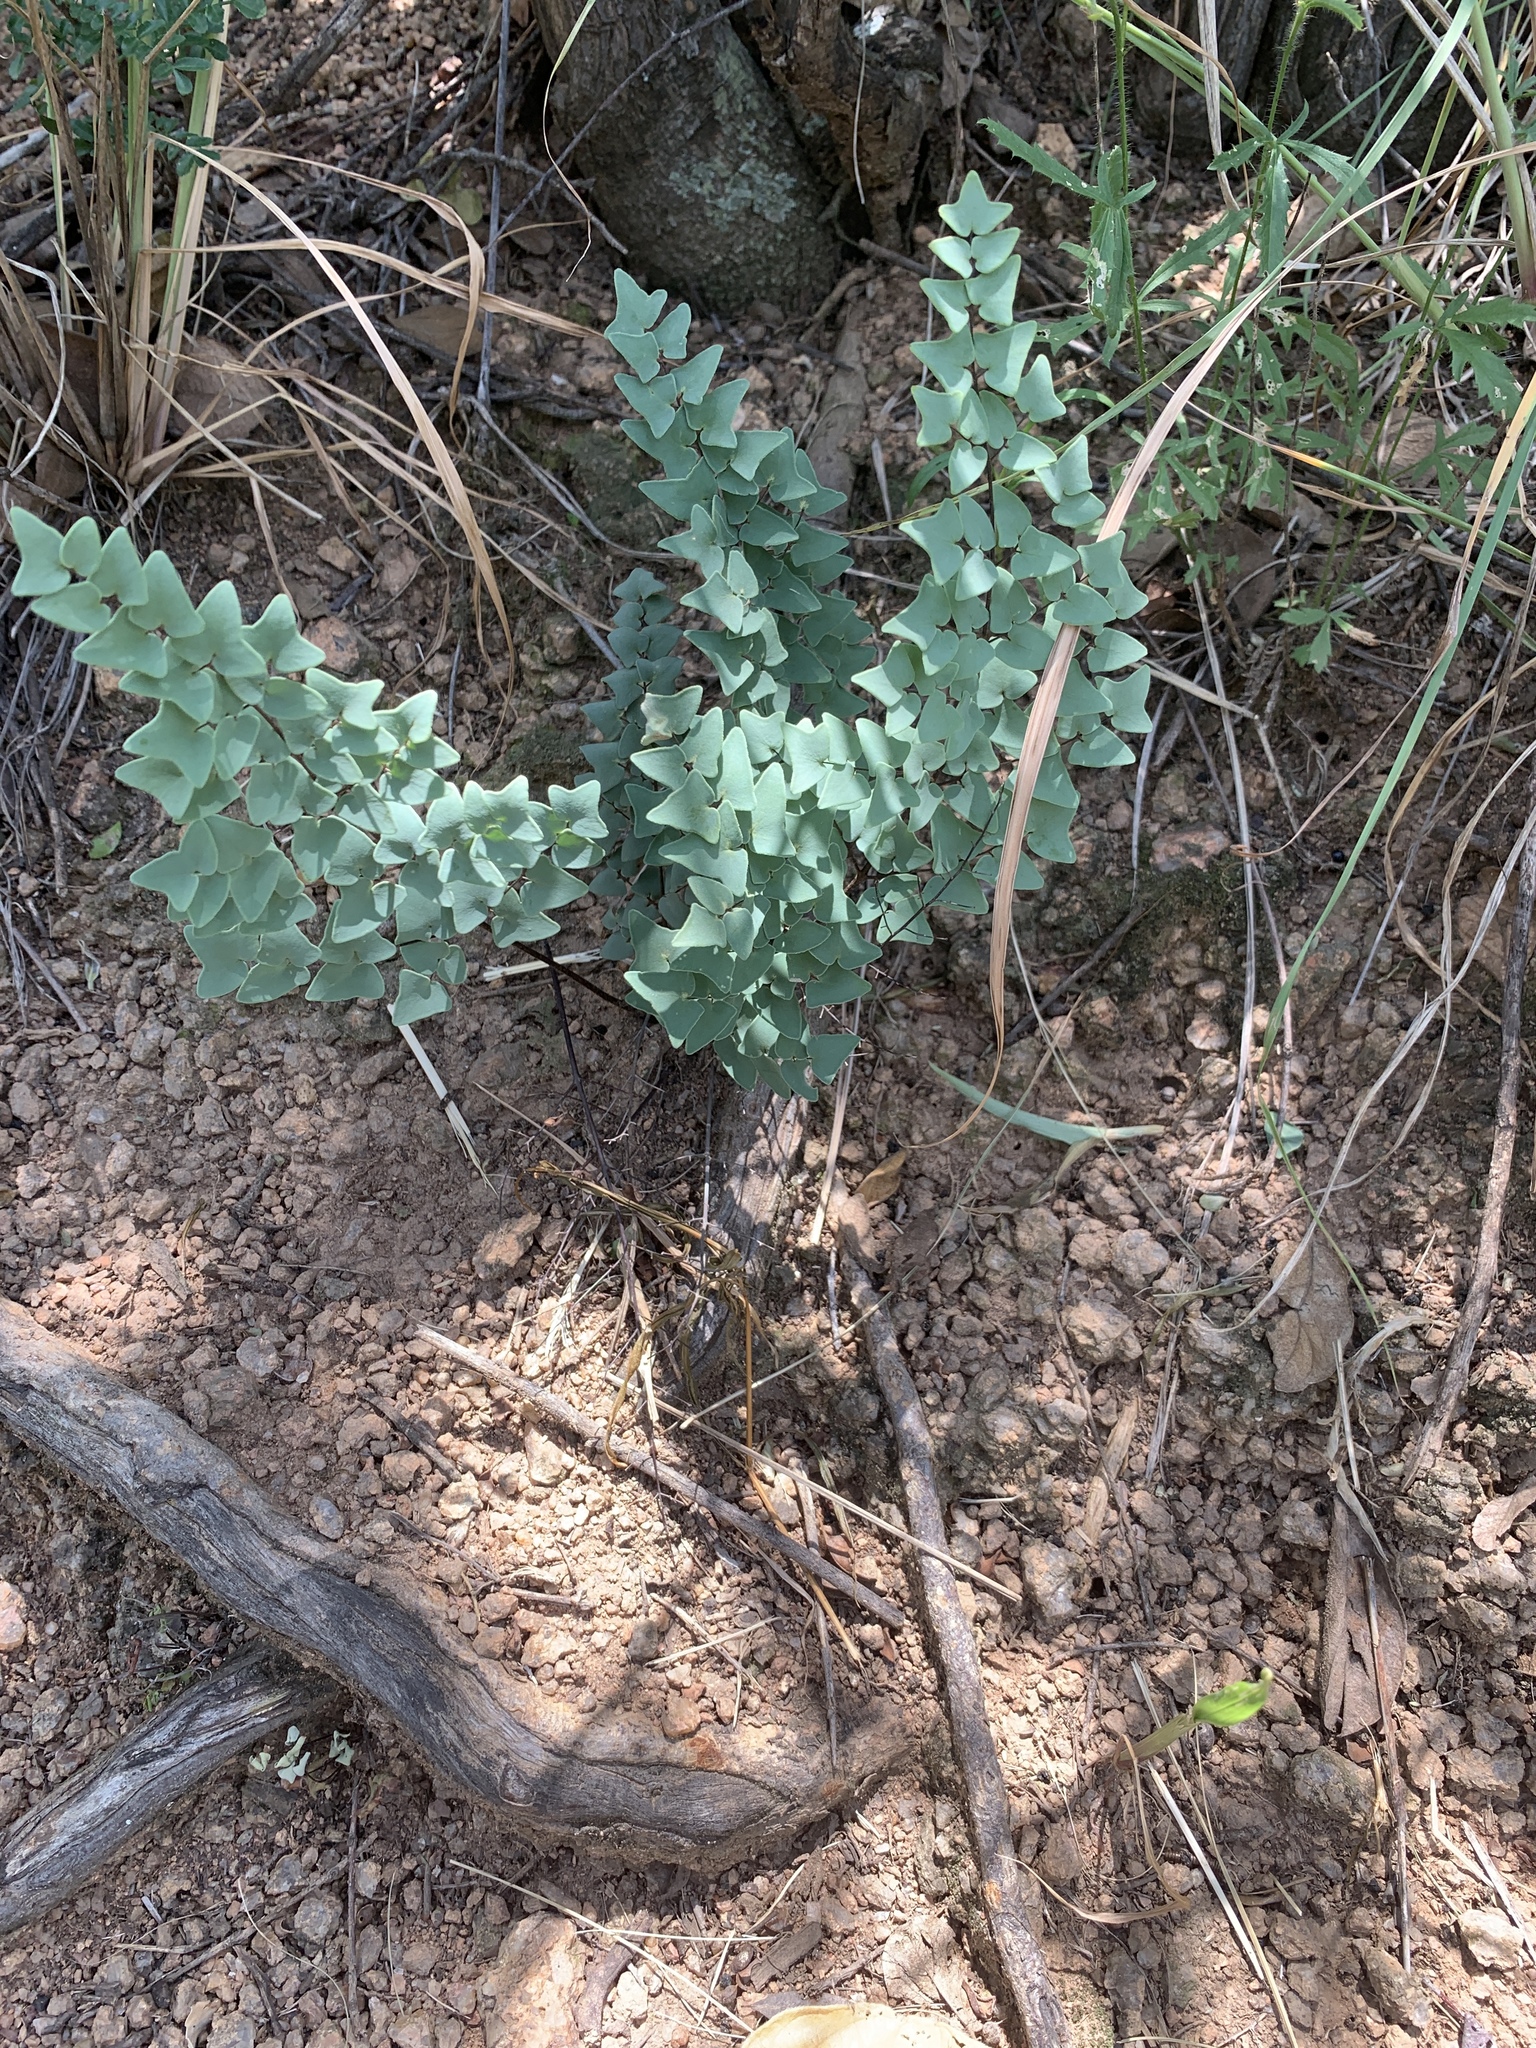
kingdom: Plantae
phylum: Tracheophyta
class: Polypodiopsida
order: Polypodiales
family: Pteridaceae
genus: Pellaea
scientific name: Pellaea calomelanos
